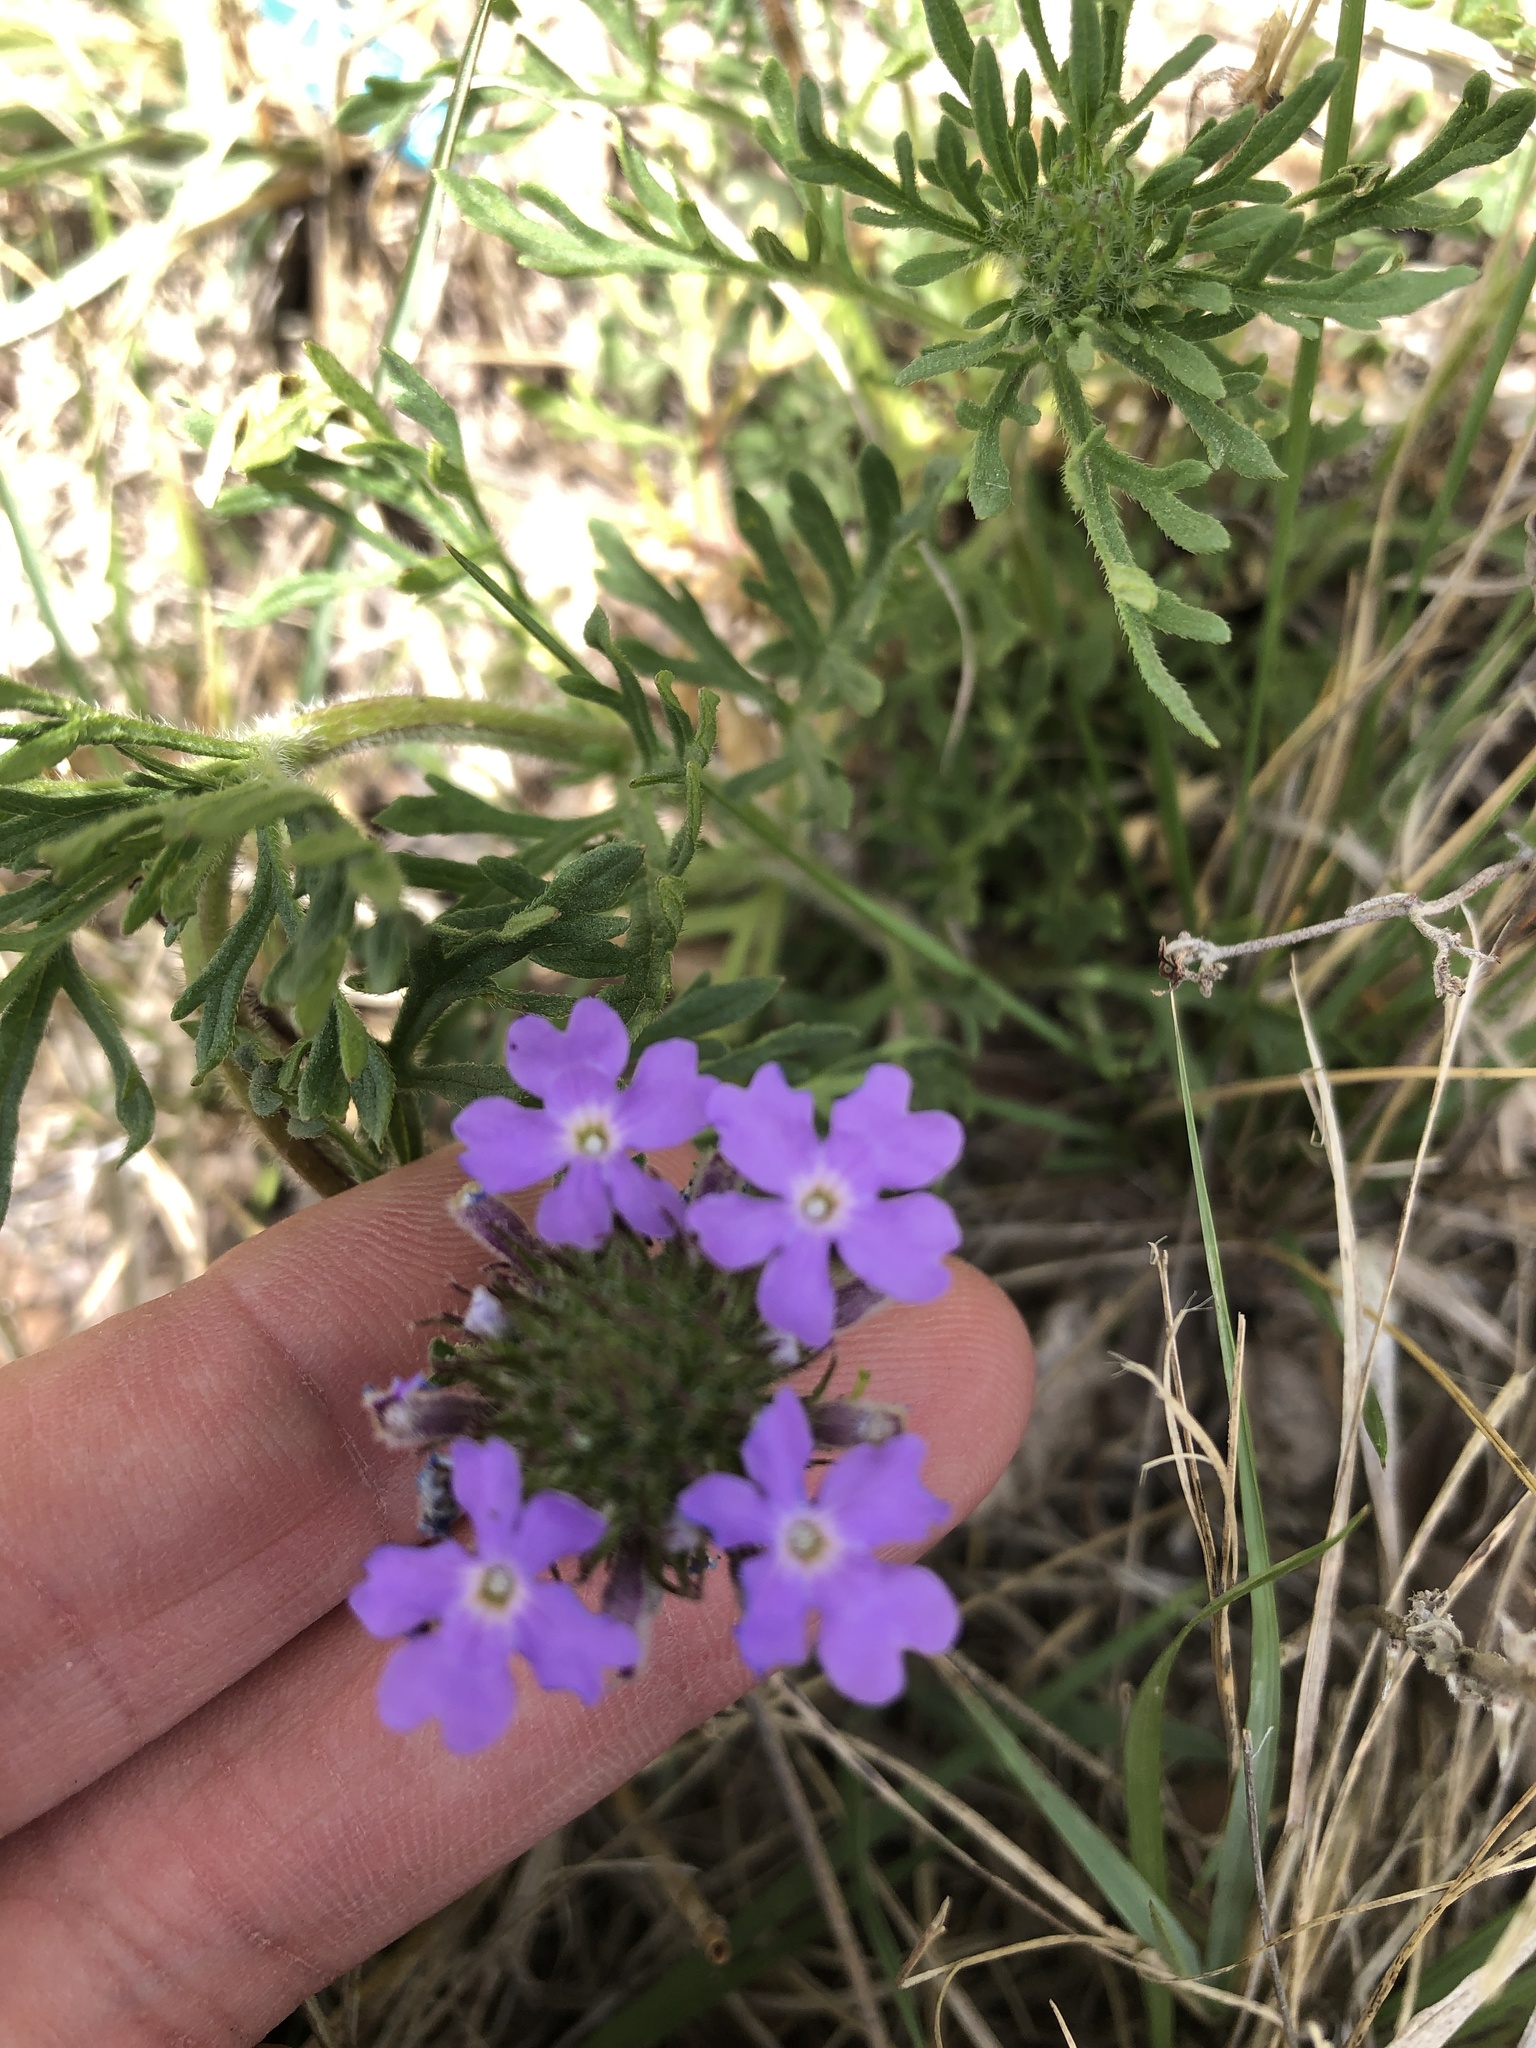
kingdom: Plantae
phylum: Tracheophyta
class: Magnoliopsida
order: Lamiales
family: Verbenaceae
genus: Verbena
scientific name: Verbena bipinnatifida
